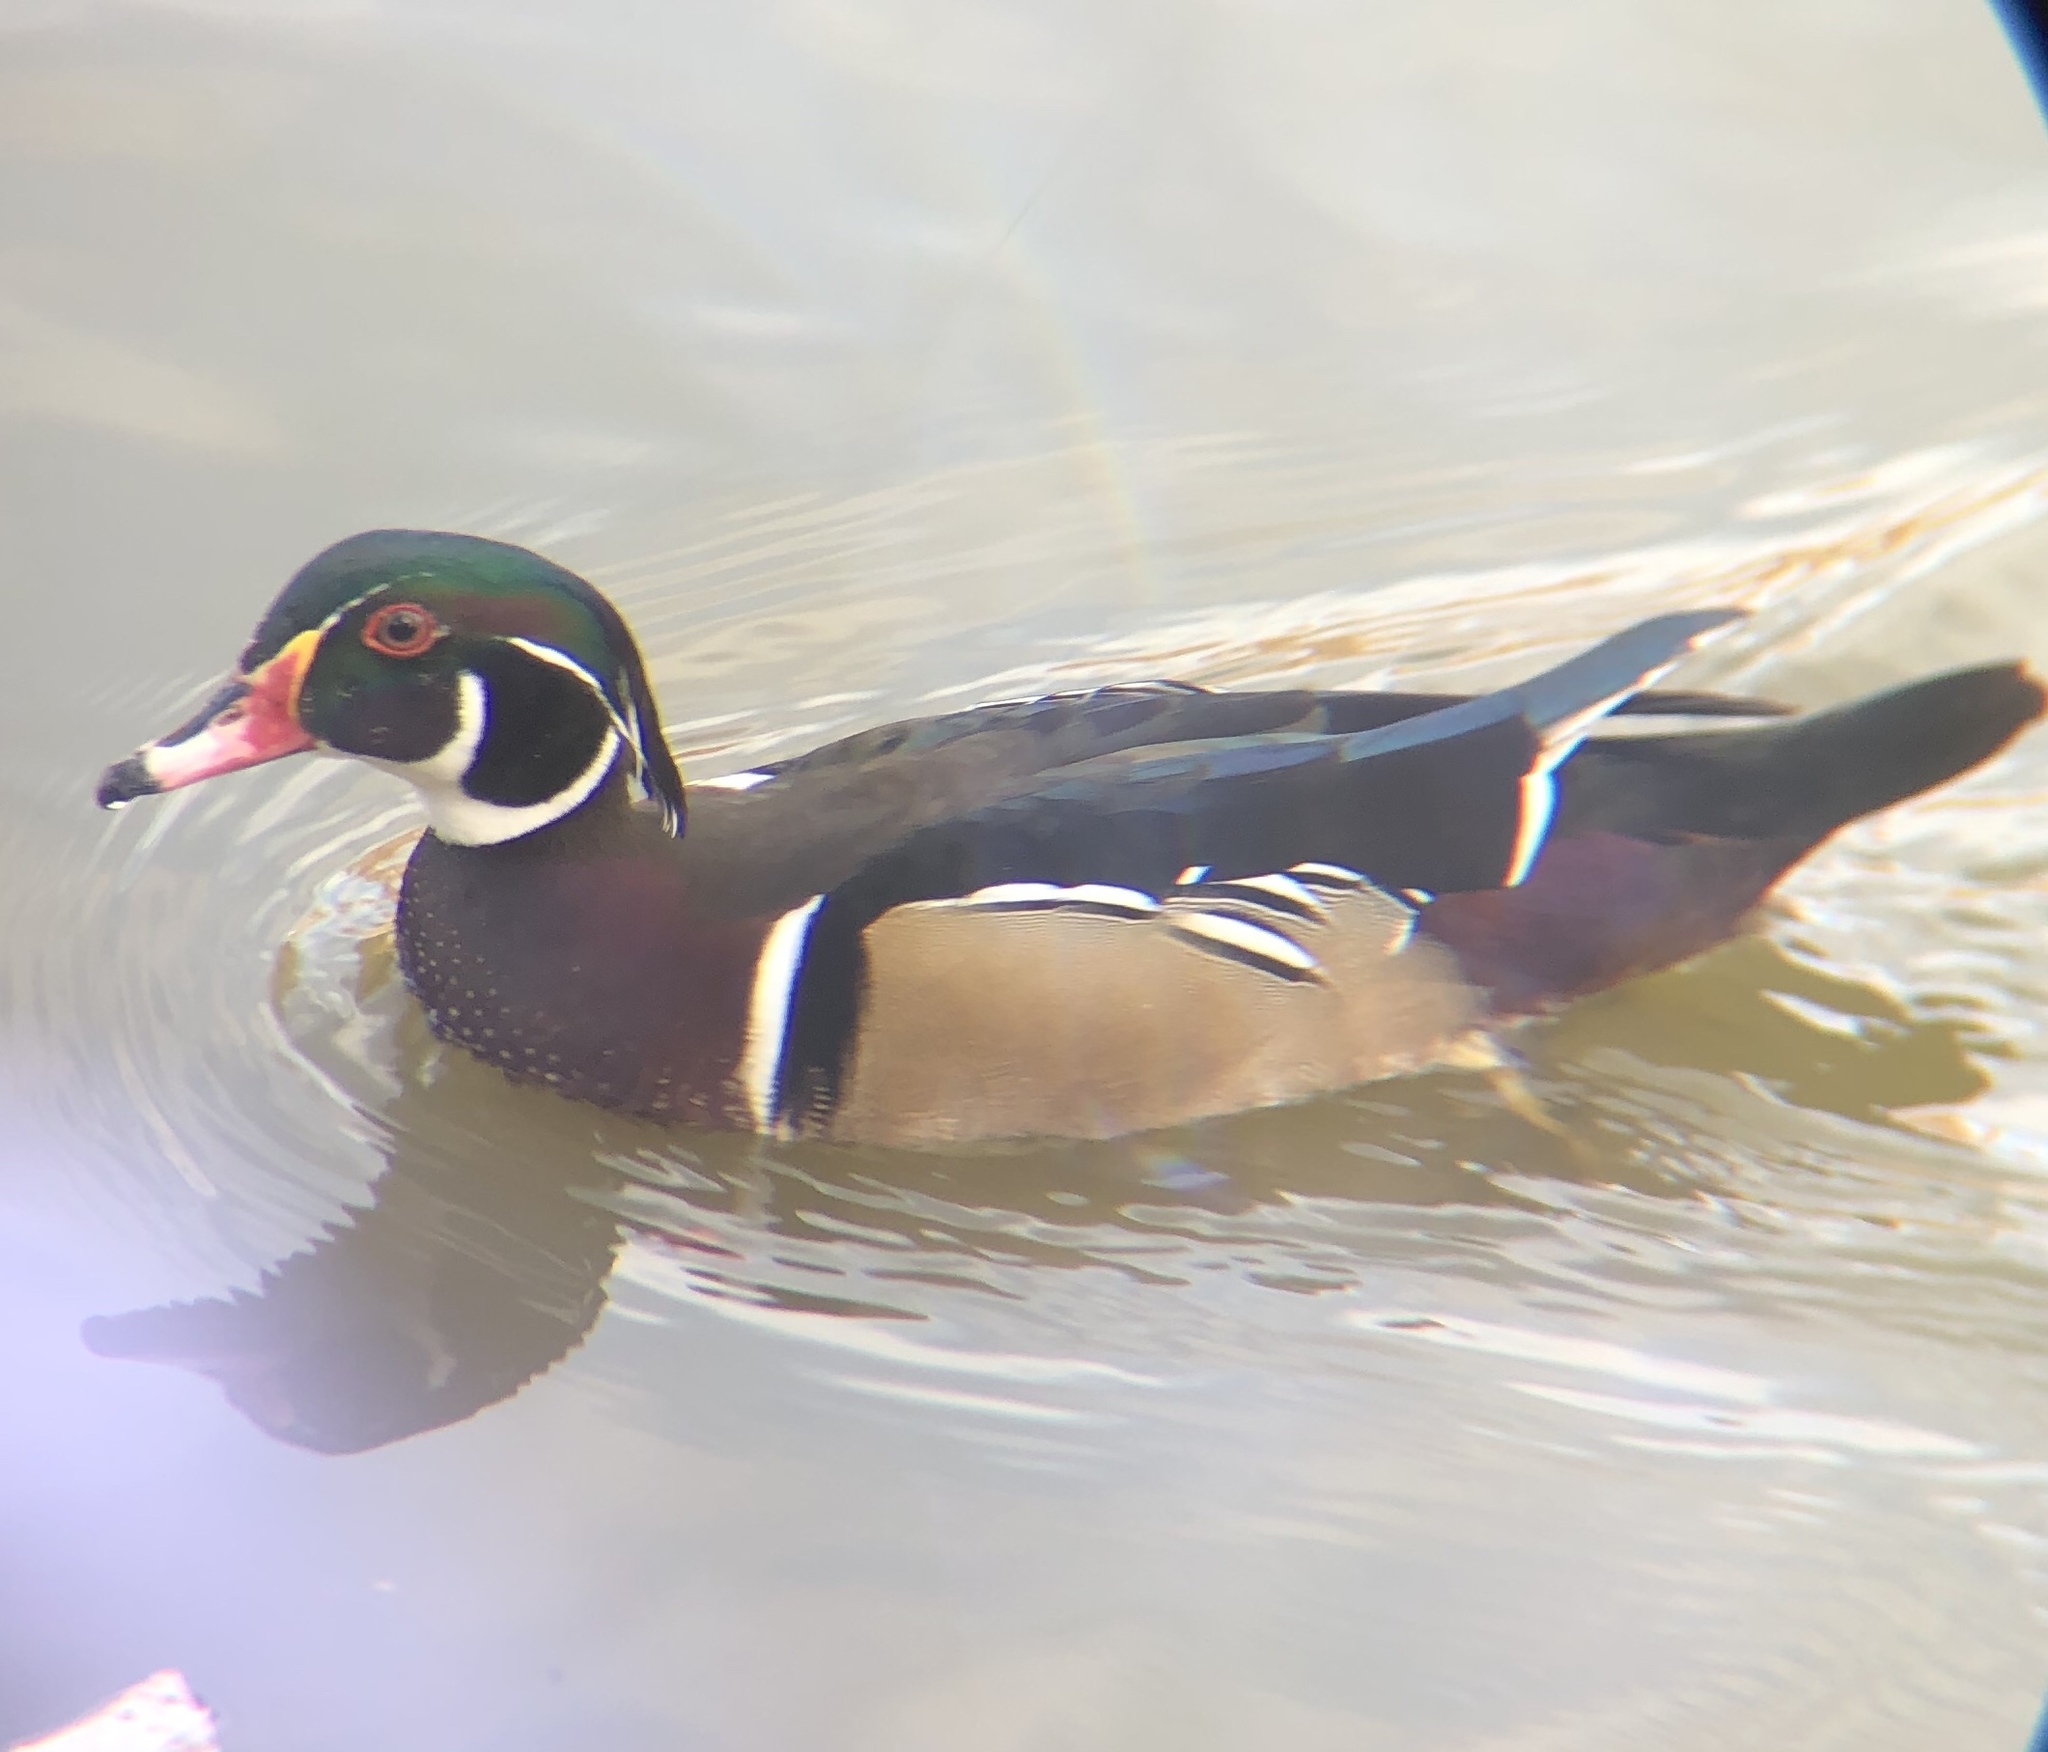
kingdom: Animalia
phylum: Chordata
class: Aves
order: Anseriformes
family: Anatidae
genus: Aix
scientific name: Aix sponsa
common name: Wood duck
